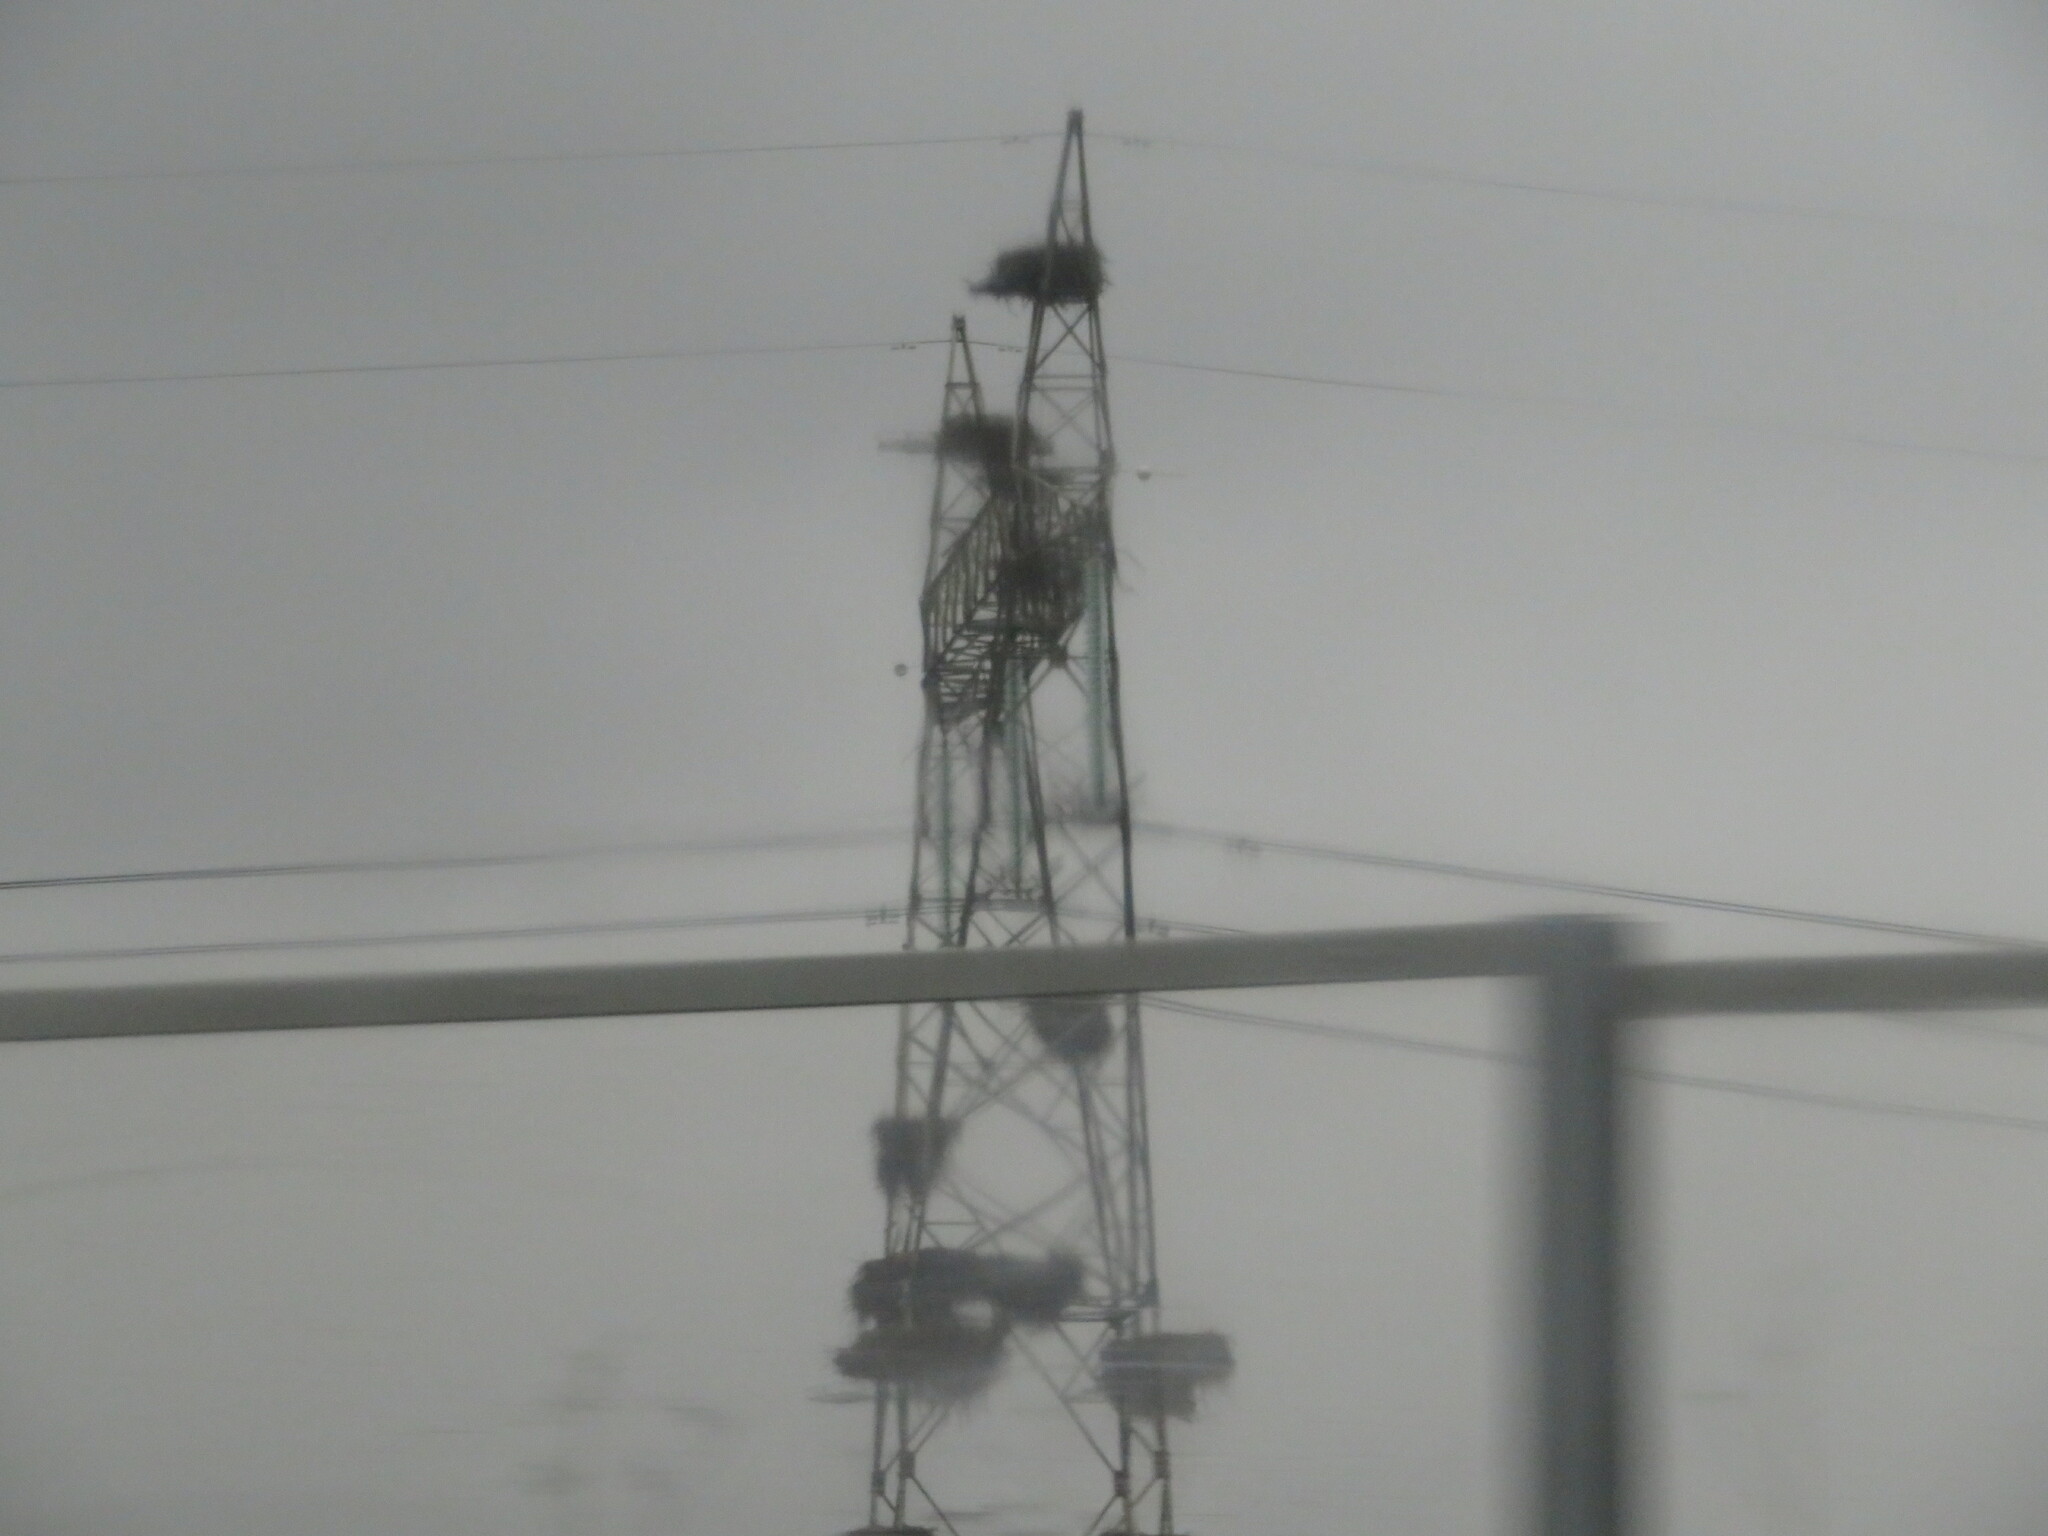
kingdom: Animalia
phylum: Chordata
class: Aves
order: Ciconiiformes
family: Ciconiidae
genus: Ciconia
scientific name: Ciconia ciconia
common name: White stork
